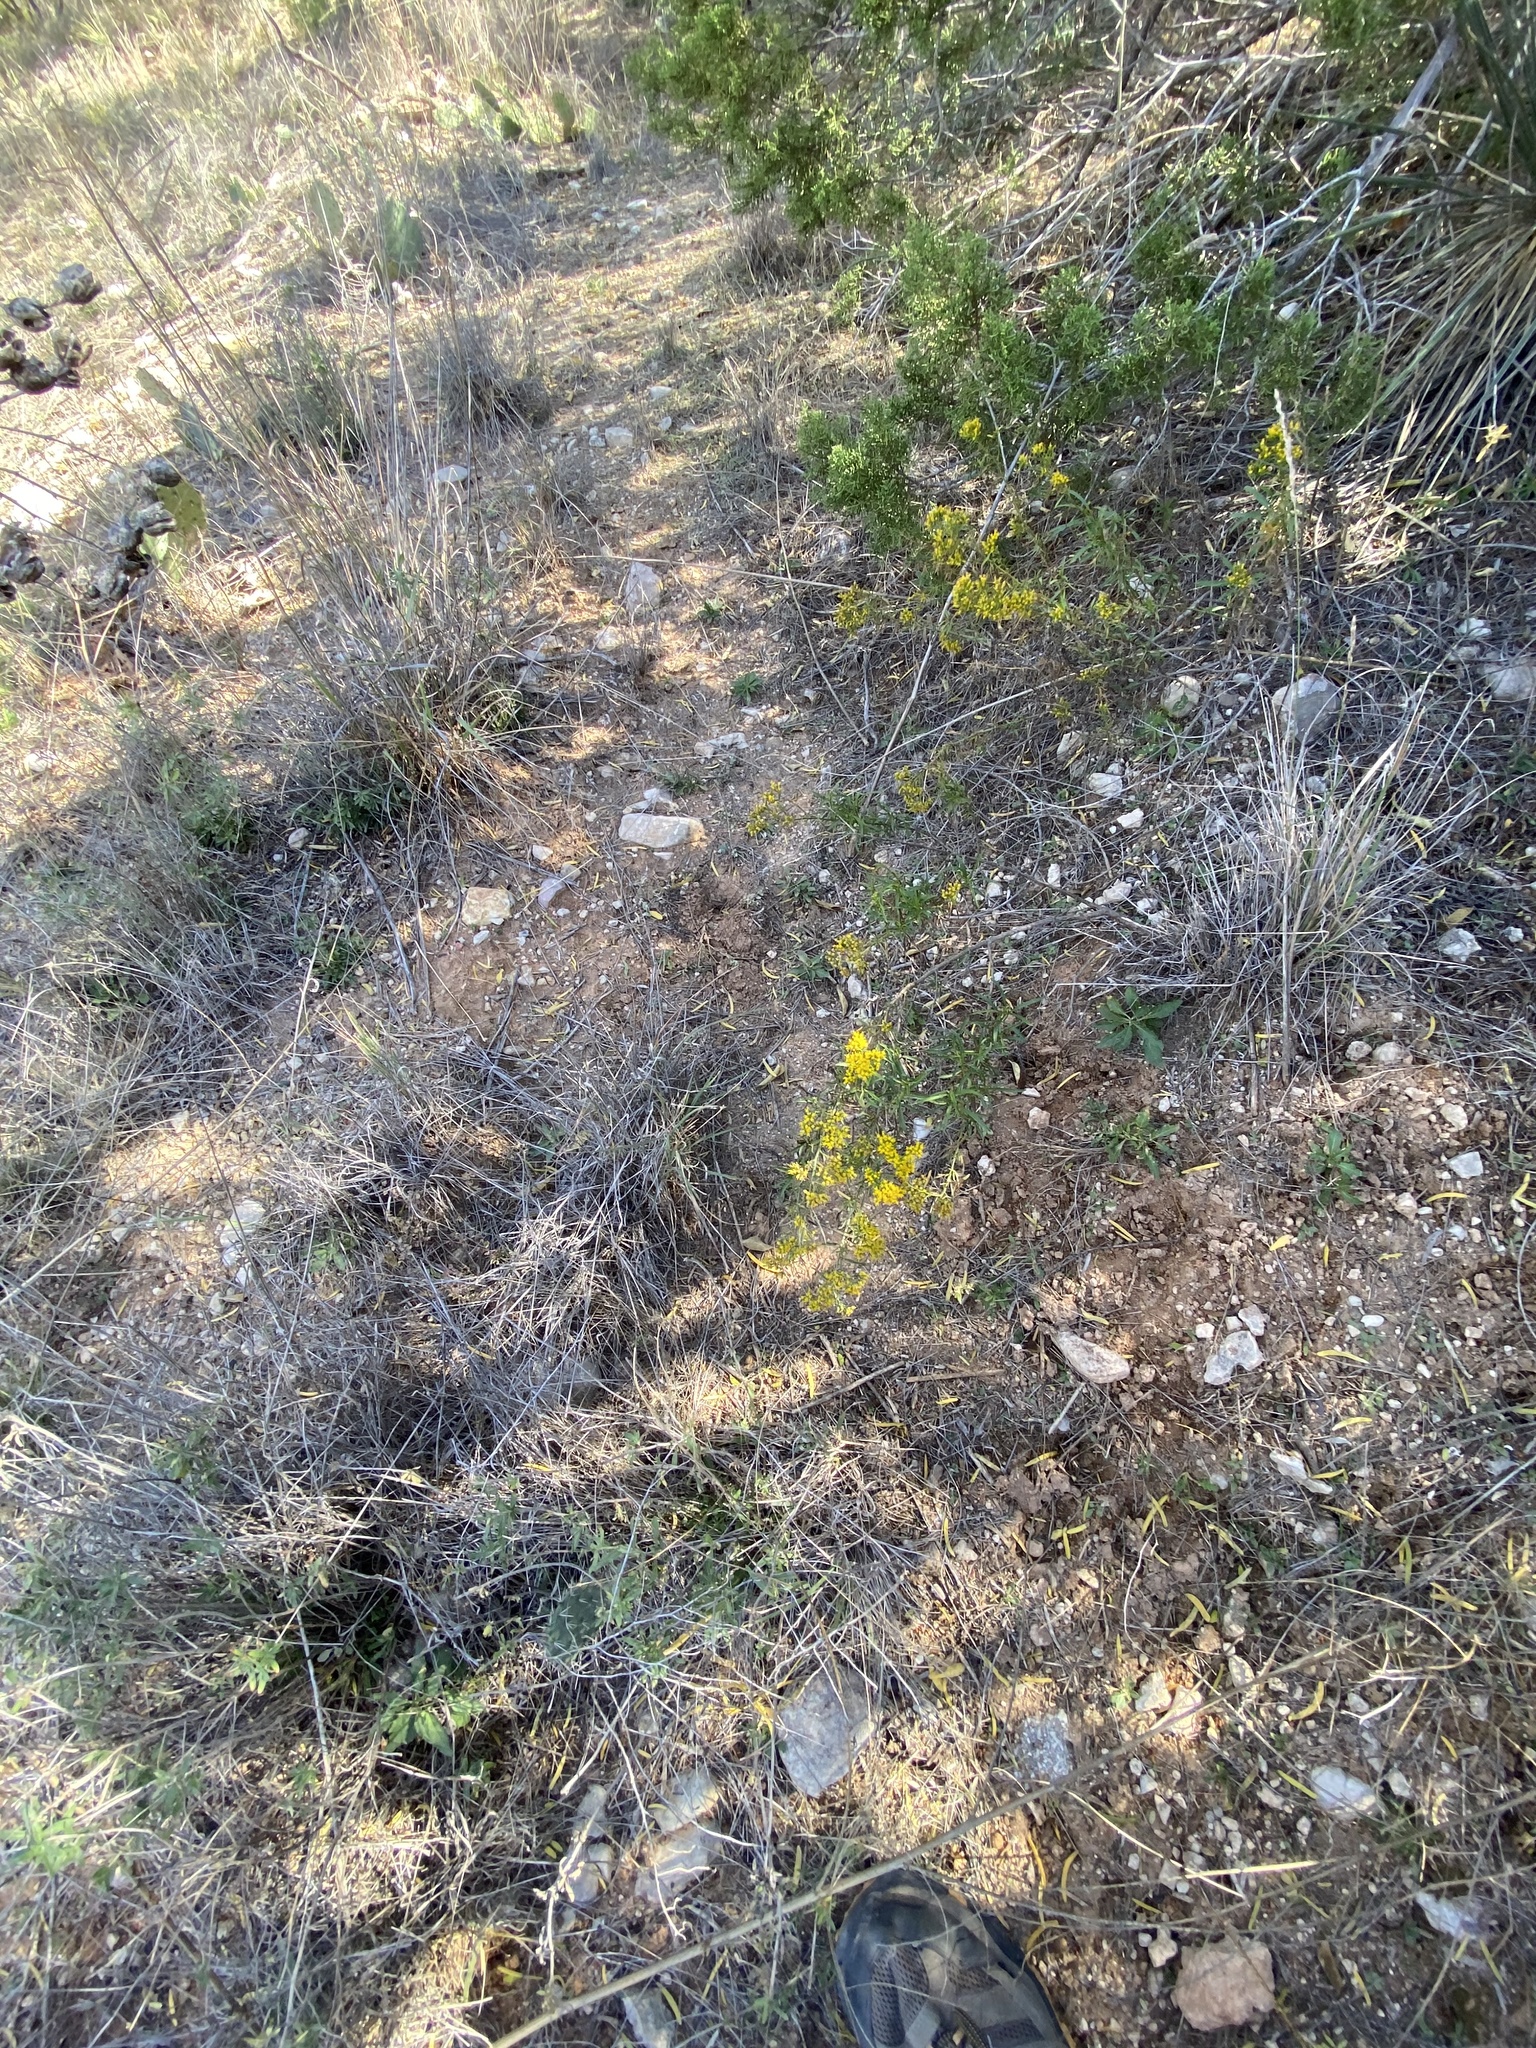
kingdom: Plantae
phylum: Tracheophyta
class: Magnoliopsida
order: Asterales
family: Asteraceae
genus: Gymnosperma
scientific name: Gymnosperma glutinosum
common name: Gumhead
